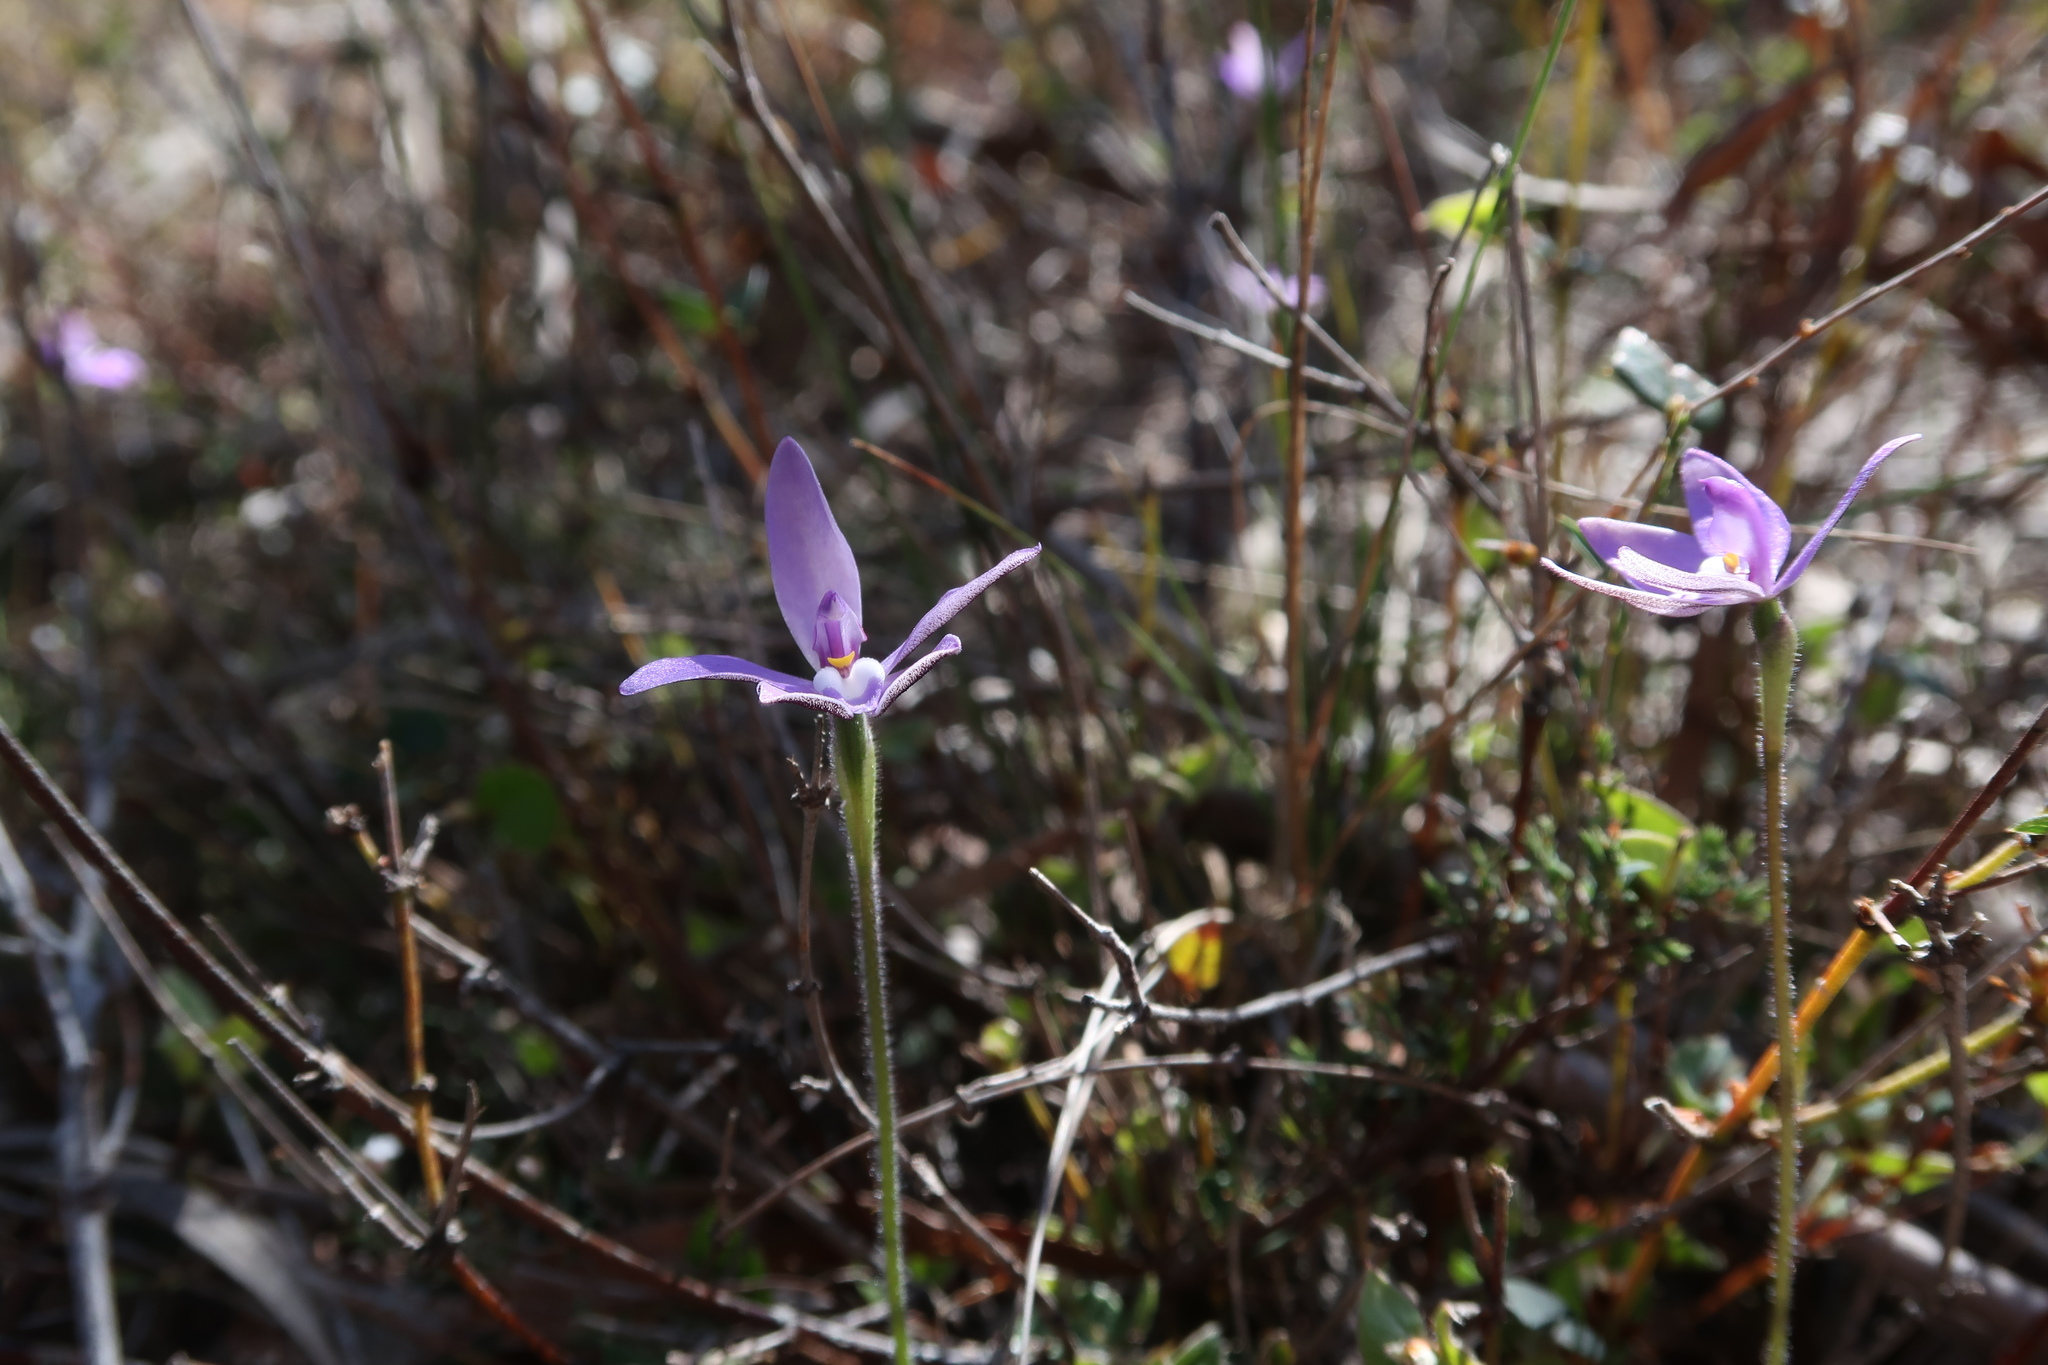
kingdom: Plantae
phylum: Tracheophyta
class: Liliopsida
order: Asparagales
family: Orchidaceae
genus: Caladenia
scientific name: Caladenia major
